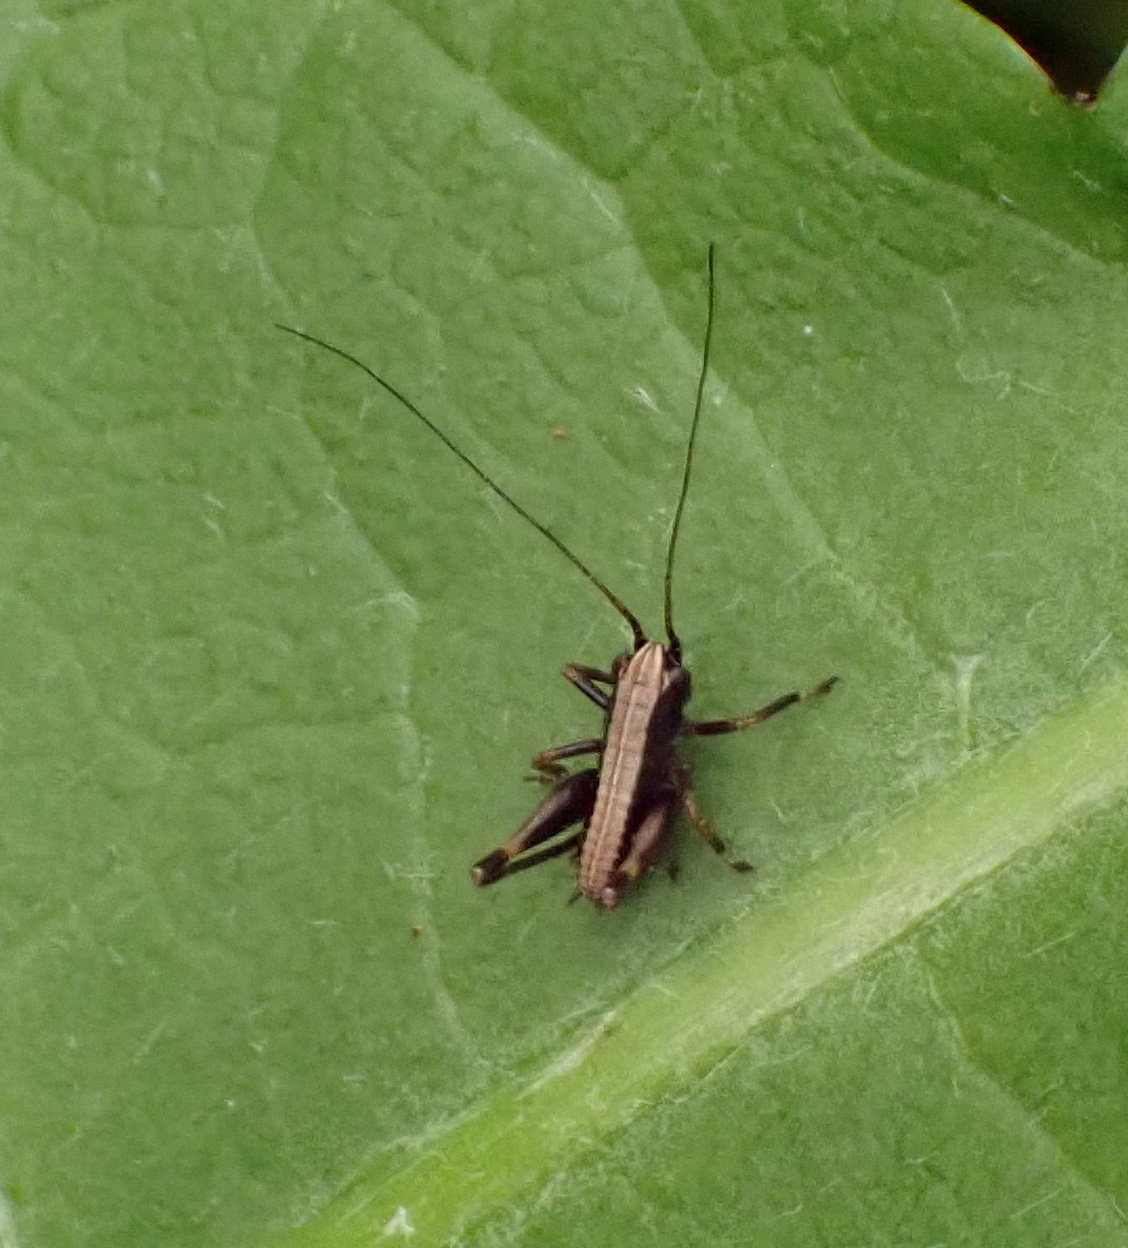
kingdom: Animalia
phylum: Arthropoda
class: Insecta
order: Orthoptera
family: Tettigoniidae
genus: Pholidoptera
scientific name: Pholidoptera griseoaptera
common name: Dark bush-cricket
